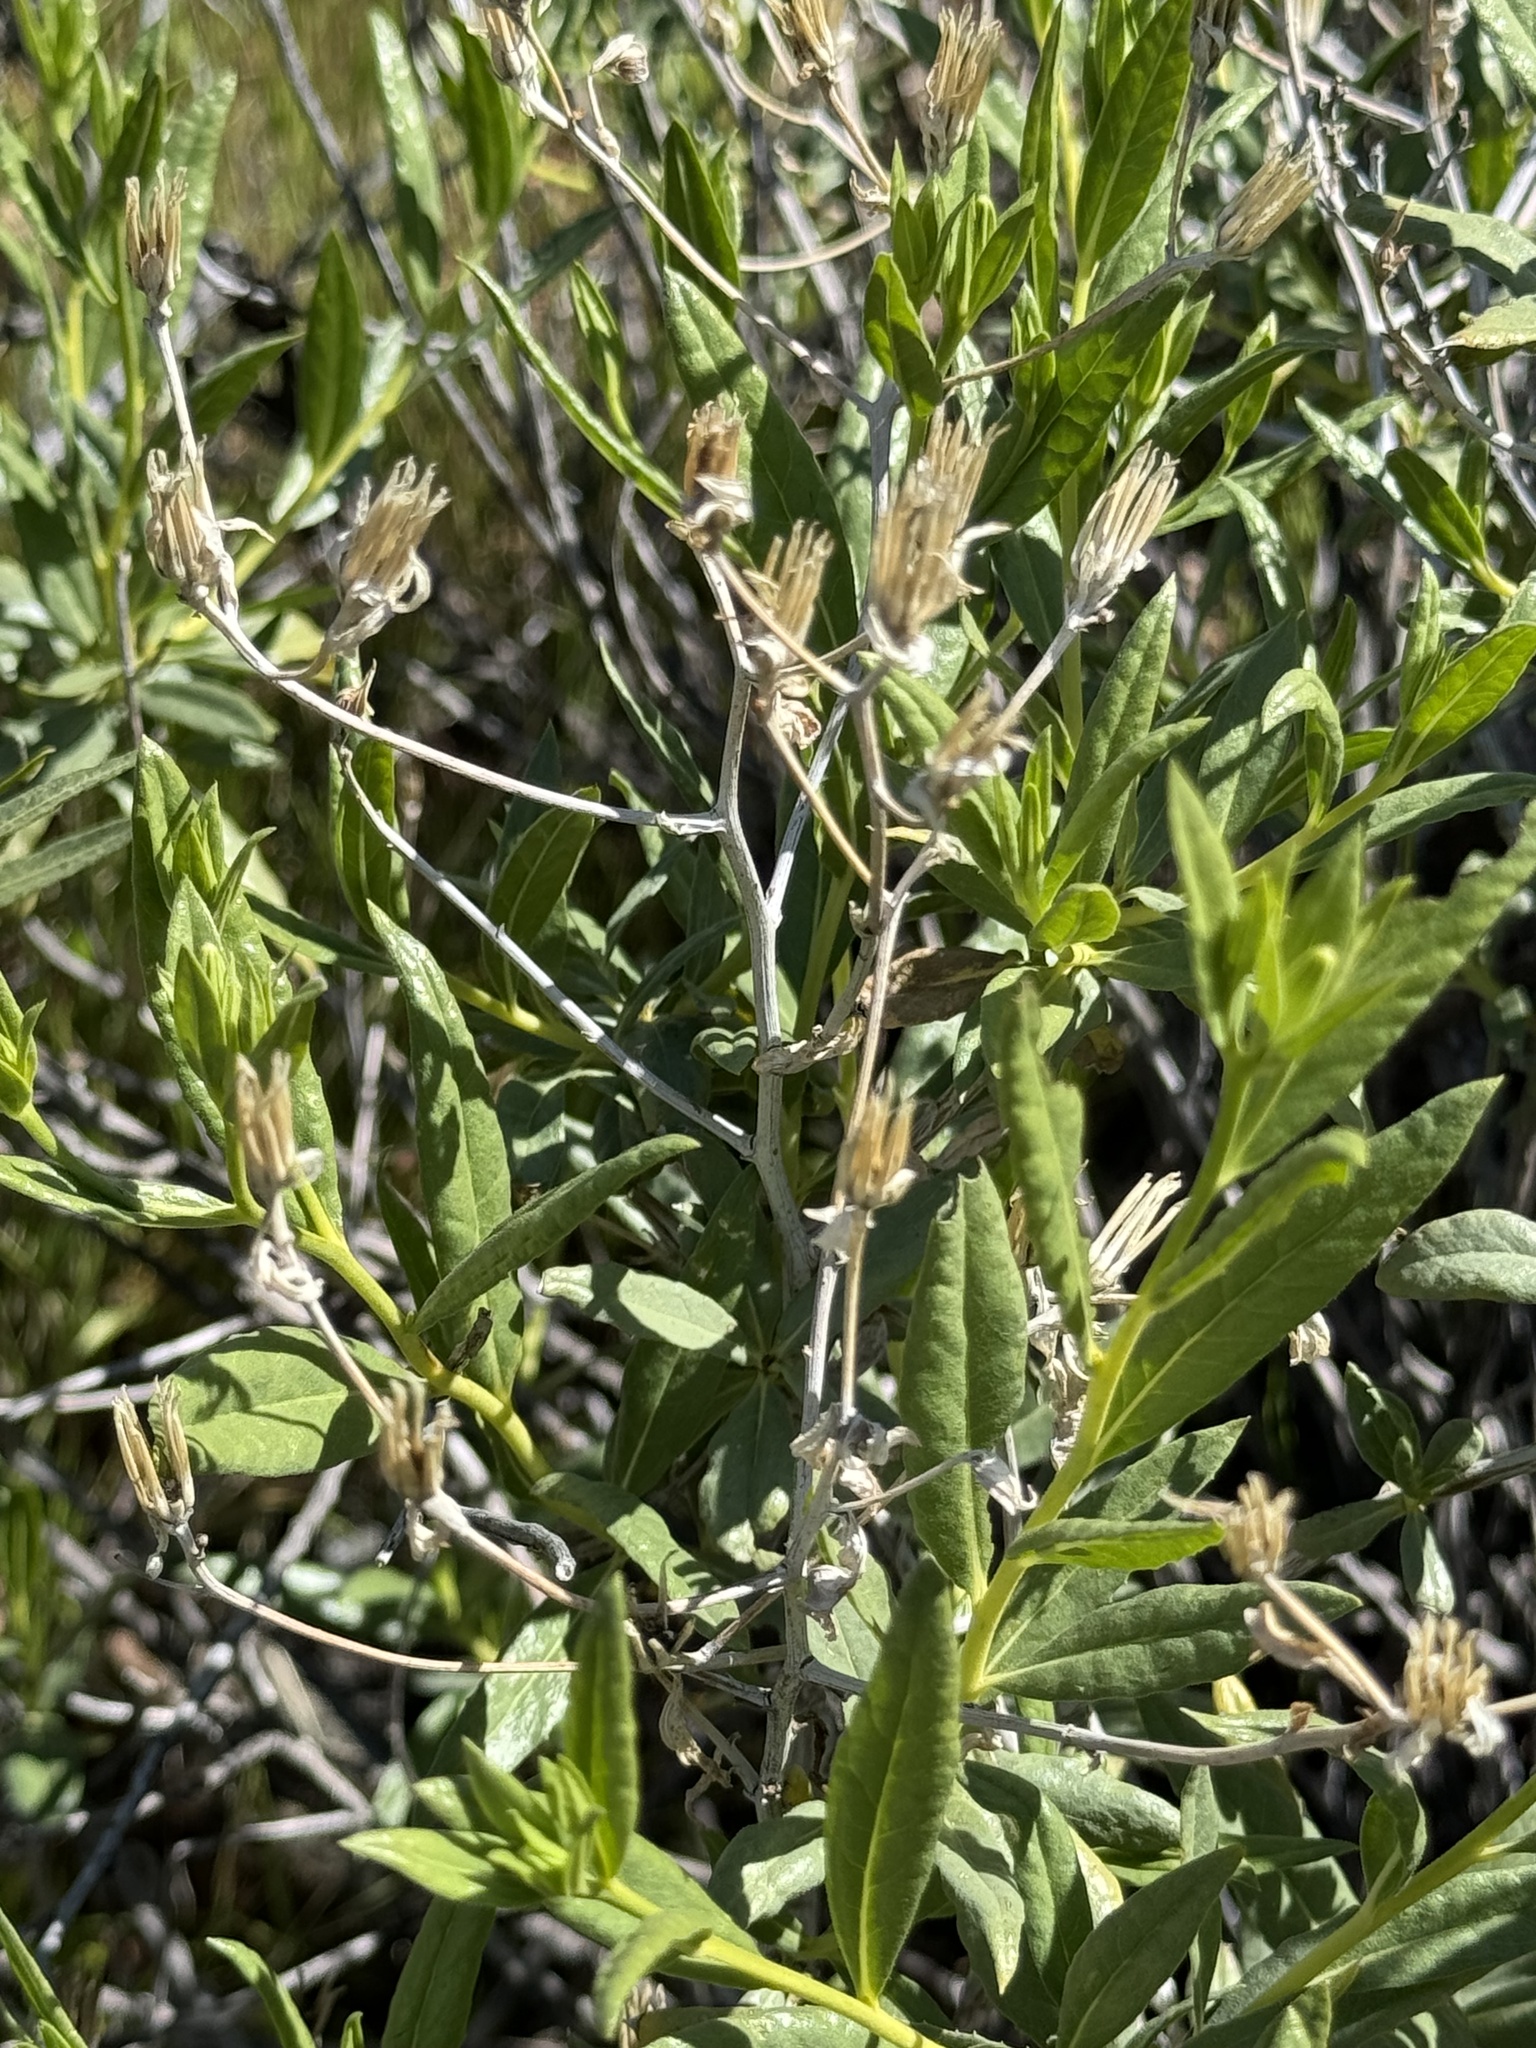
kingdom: Plantae
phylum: Tracheophyta
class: Magnoliopsida
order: Asterales
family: Asteraceae
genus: Trixis
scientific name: Trixis californica
